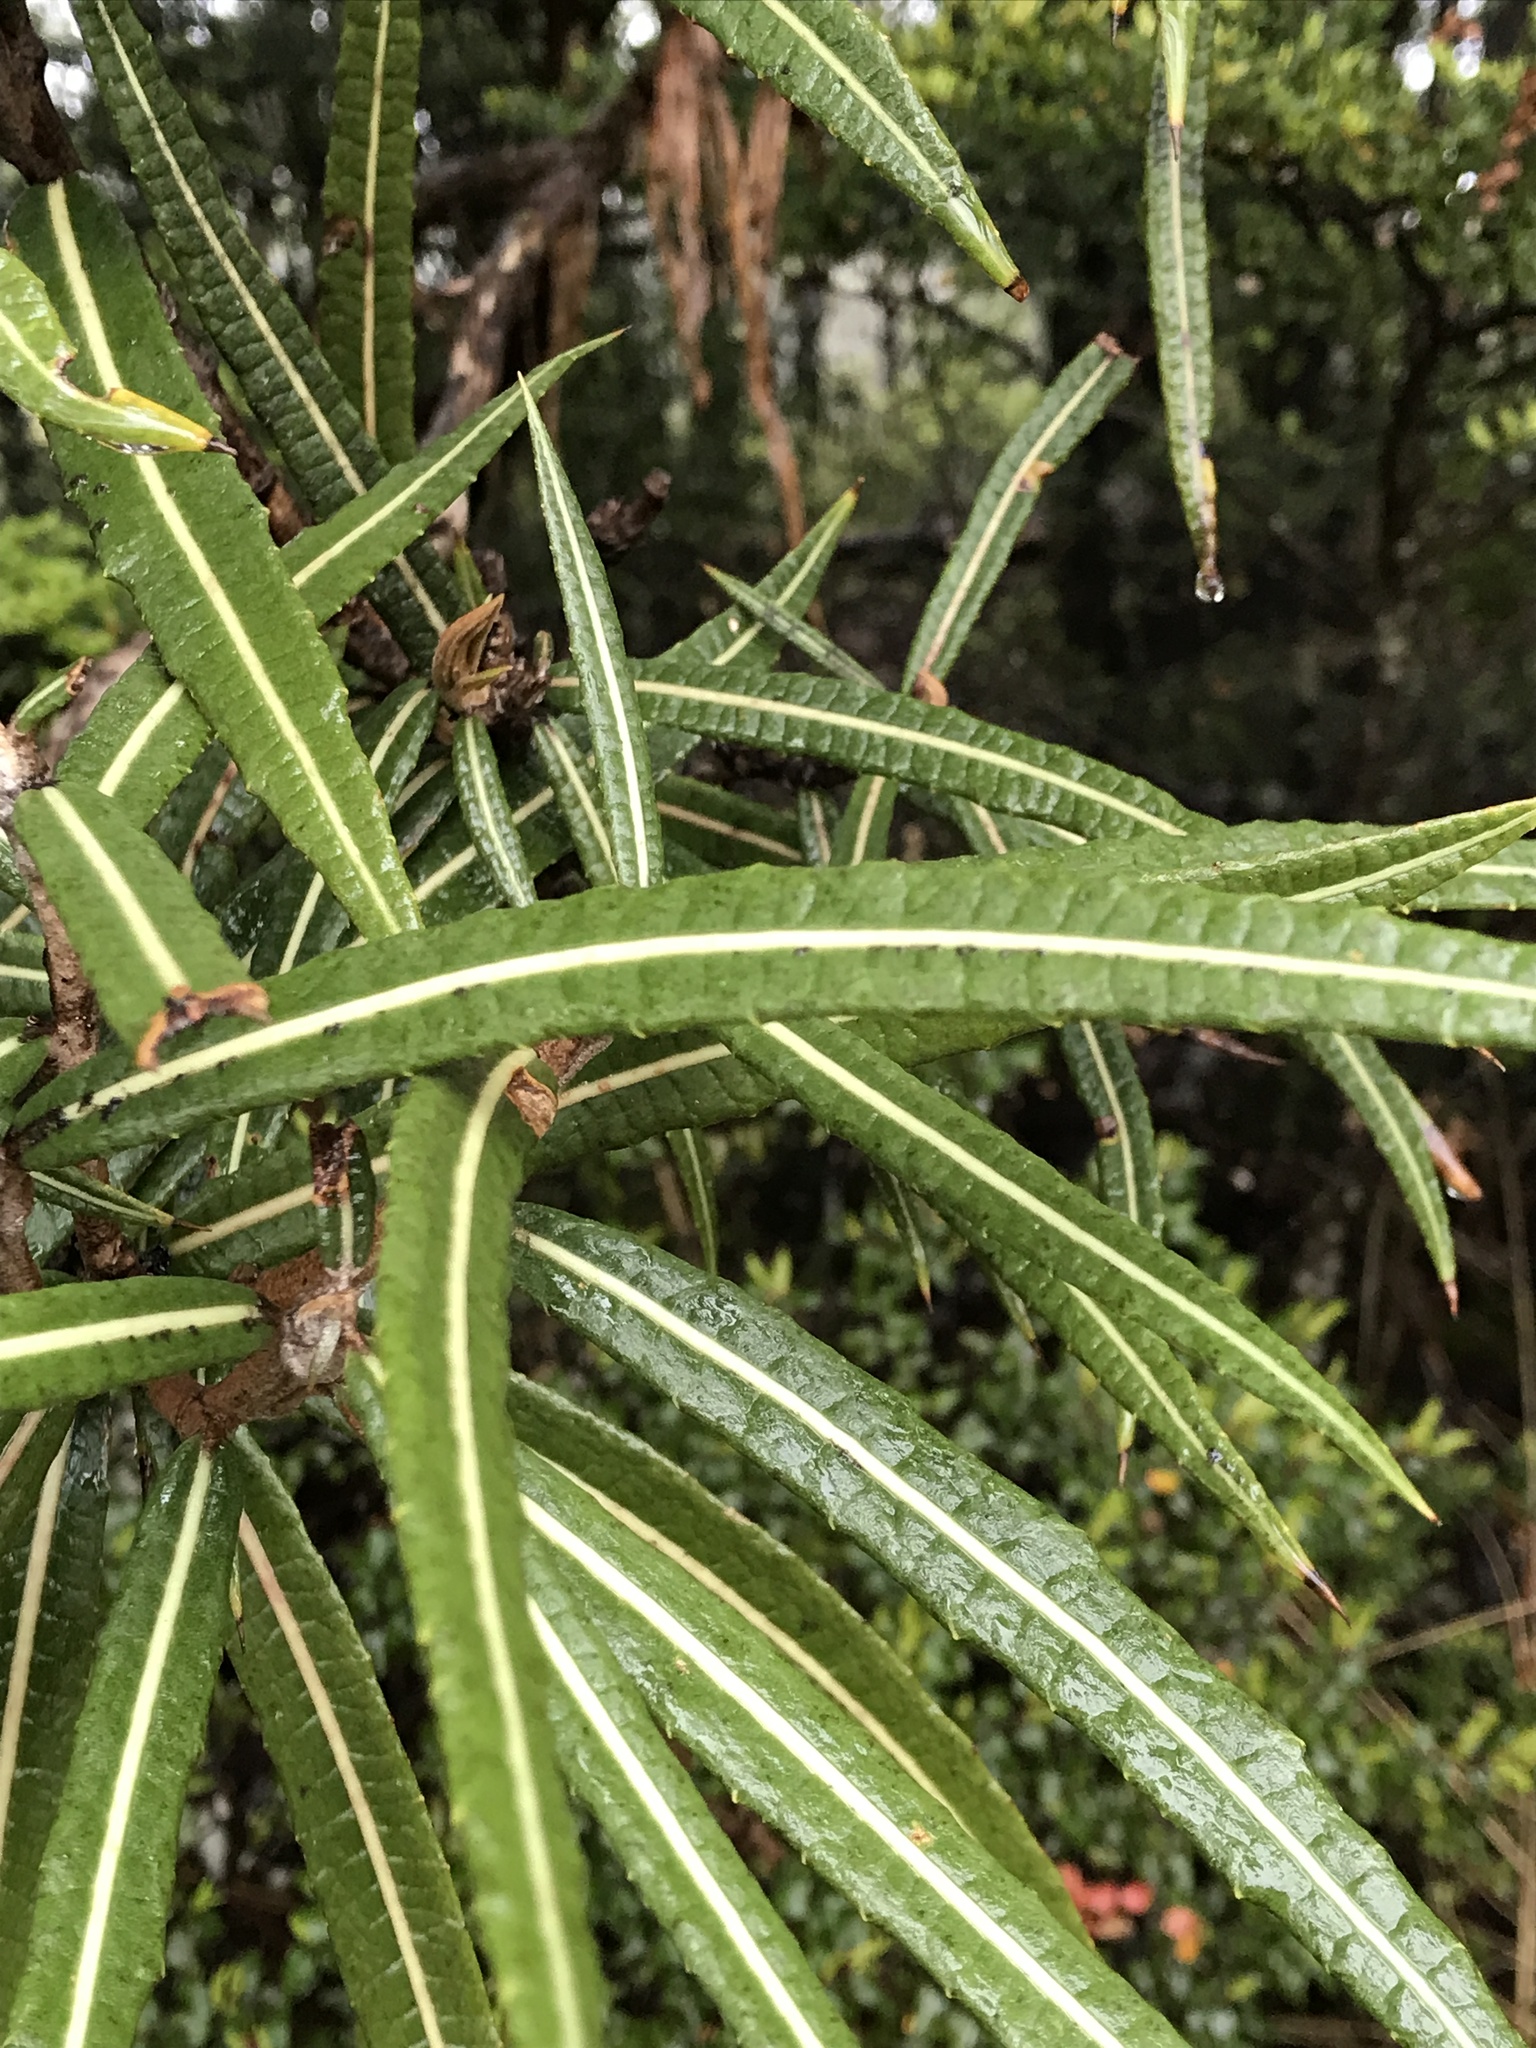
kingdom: Plantae
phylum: Tracheophyta
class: Magnoliopsida
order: Asterales
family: Asteraceae
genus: Olearia
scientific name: Olearia lacunosa
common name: Lancewood tree daisy
